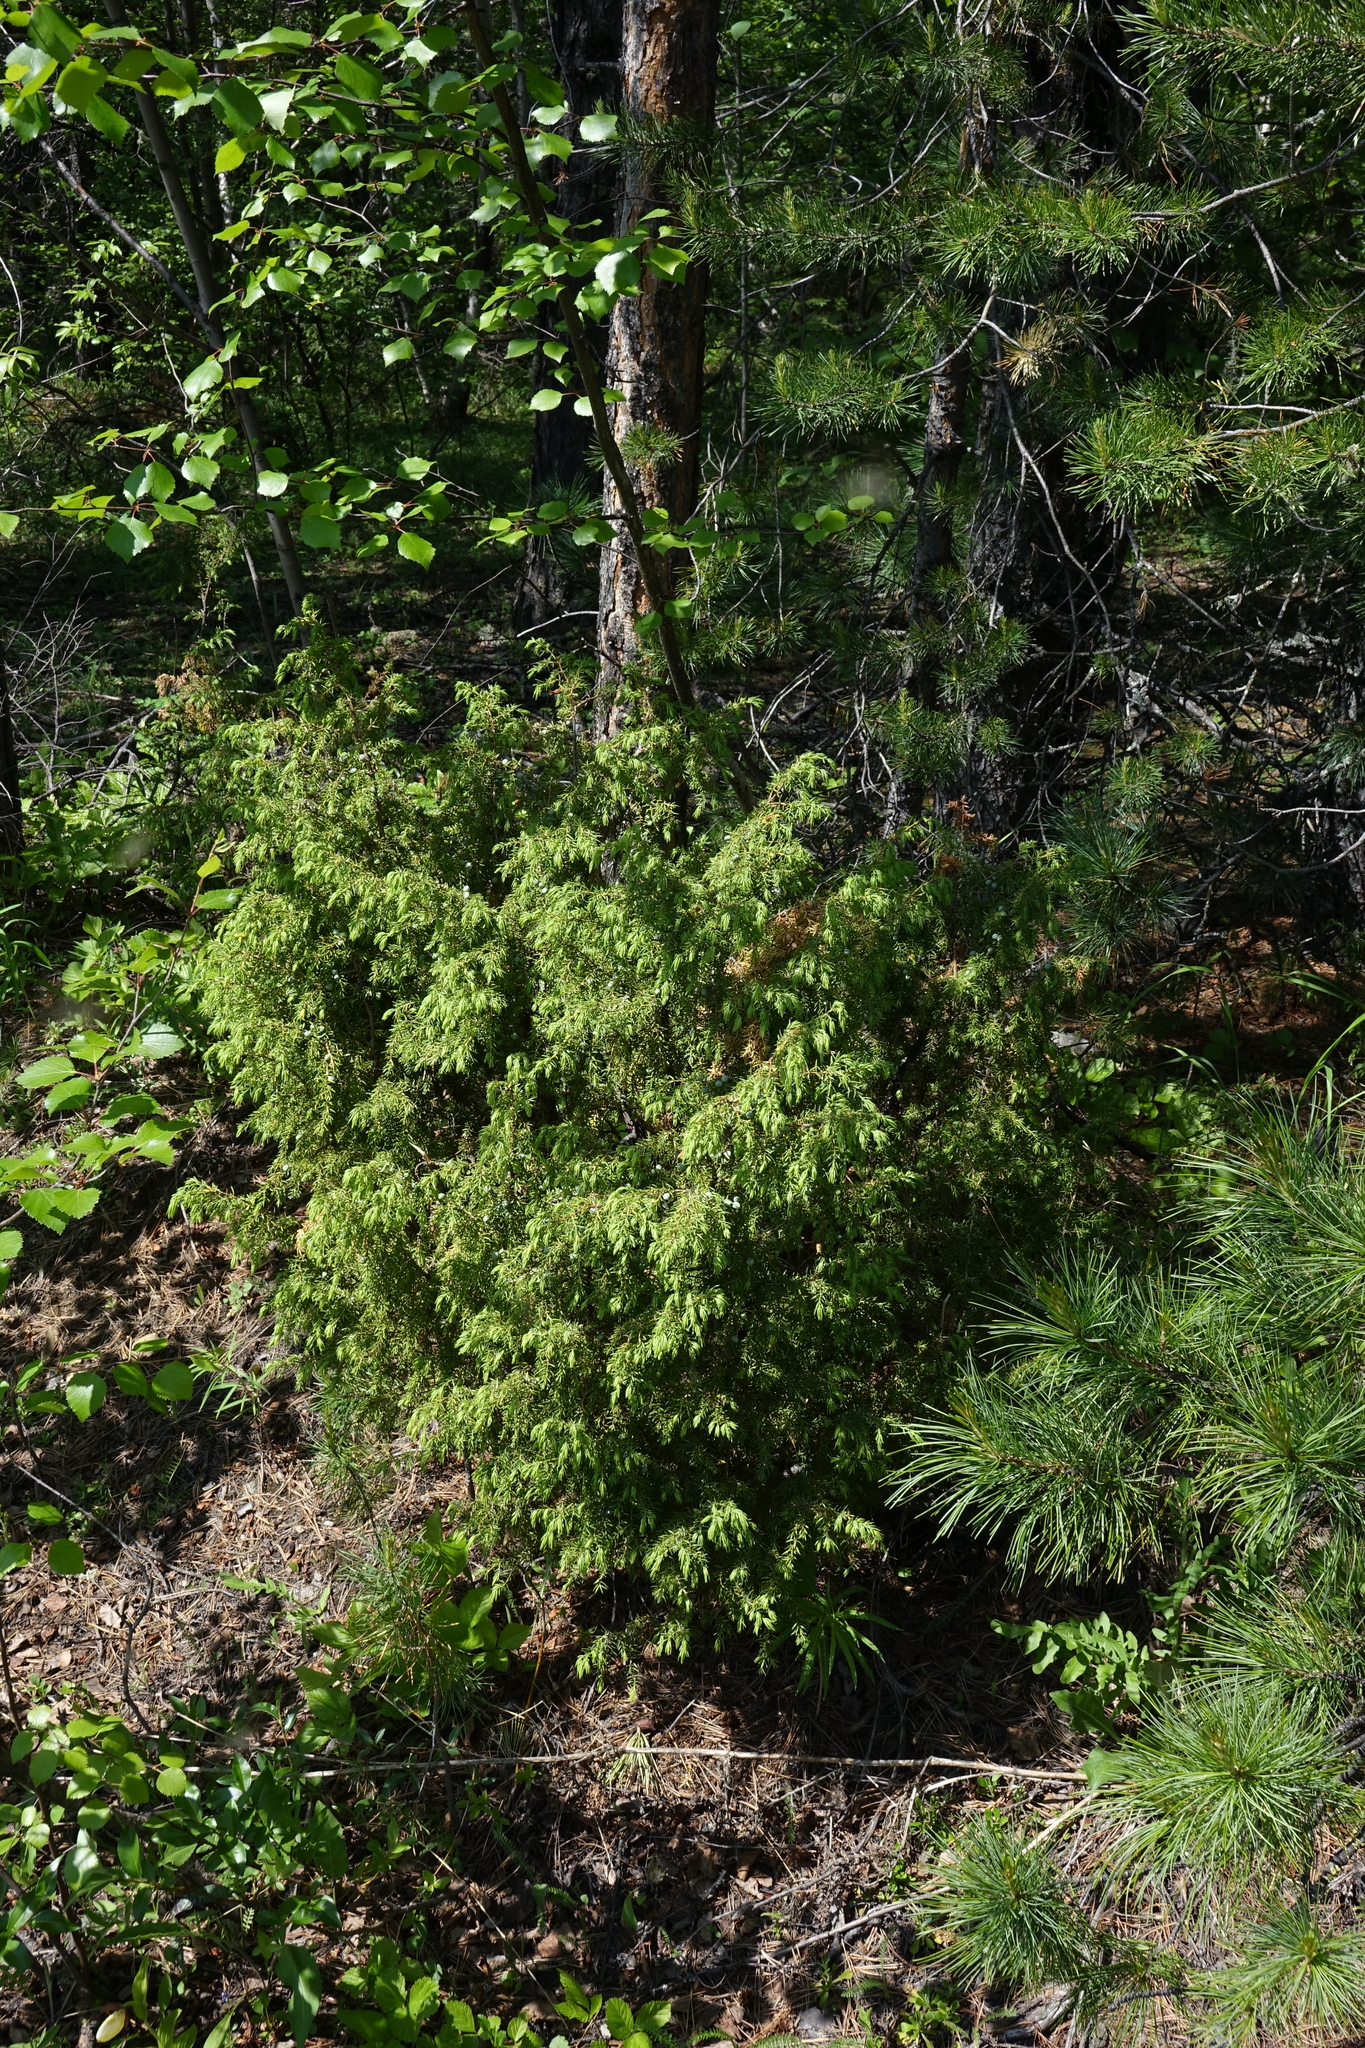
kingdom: Plantae
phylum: Tracheophyta
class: Pinopsida
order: Pinales
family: Cupressaceae
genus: Juniperus
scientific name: Juniperus communis
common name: Common juniper
